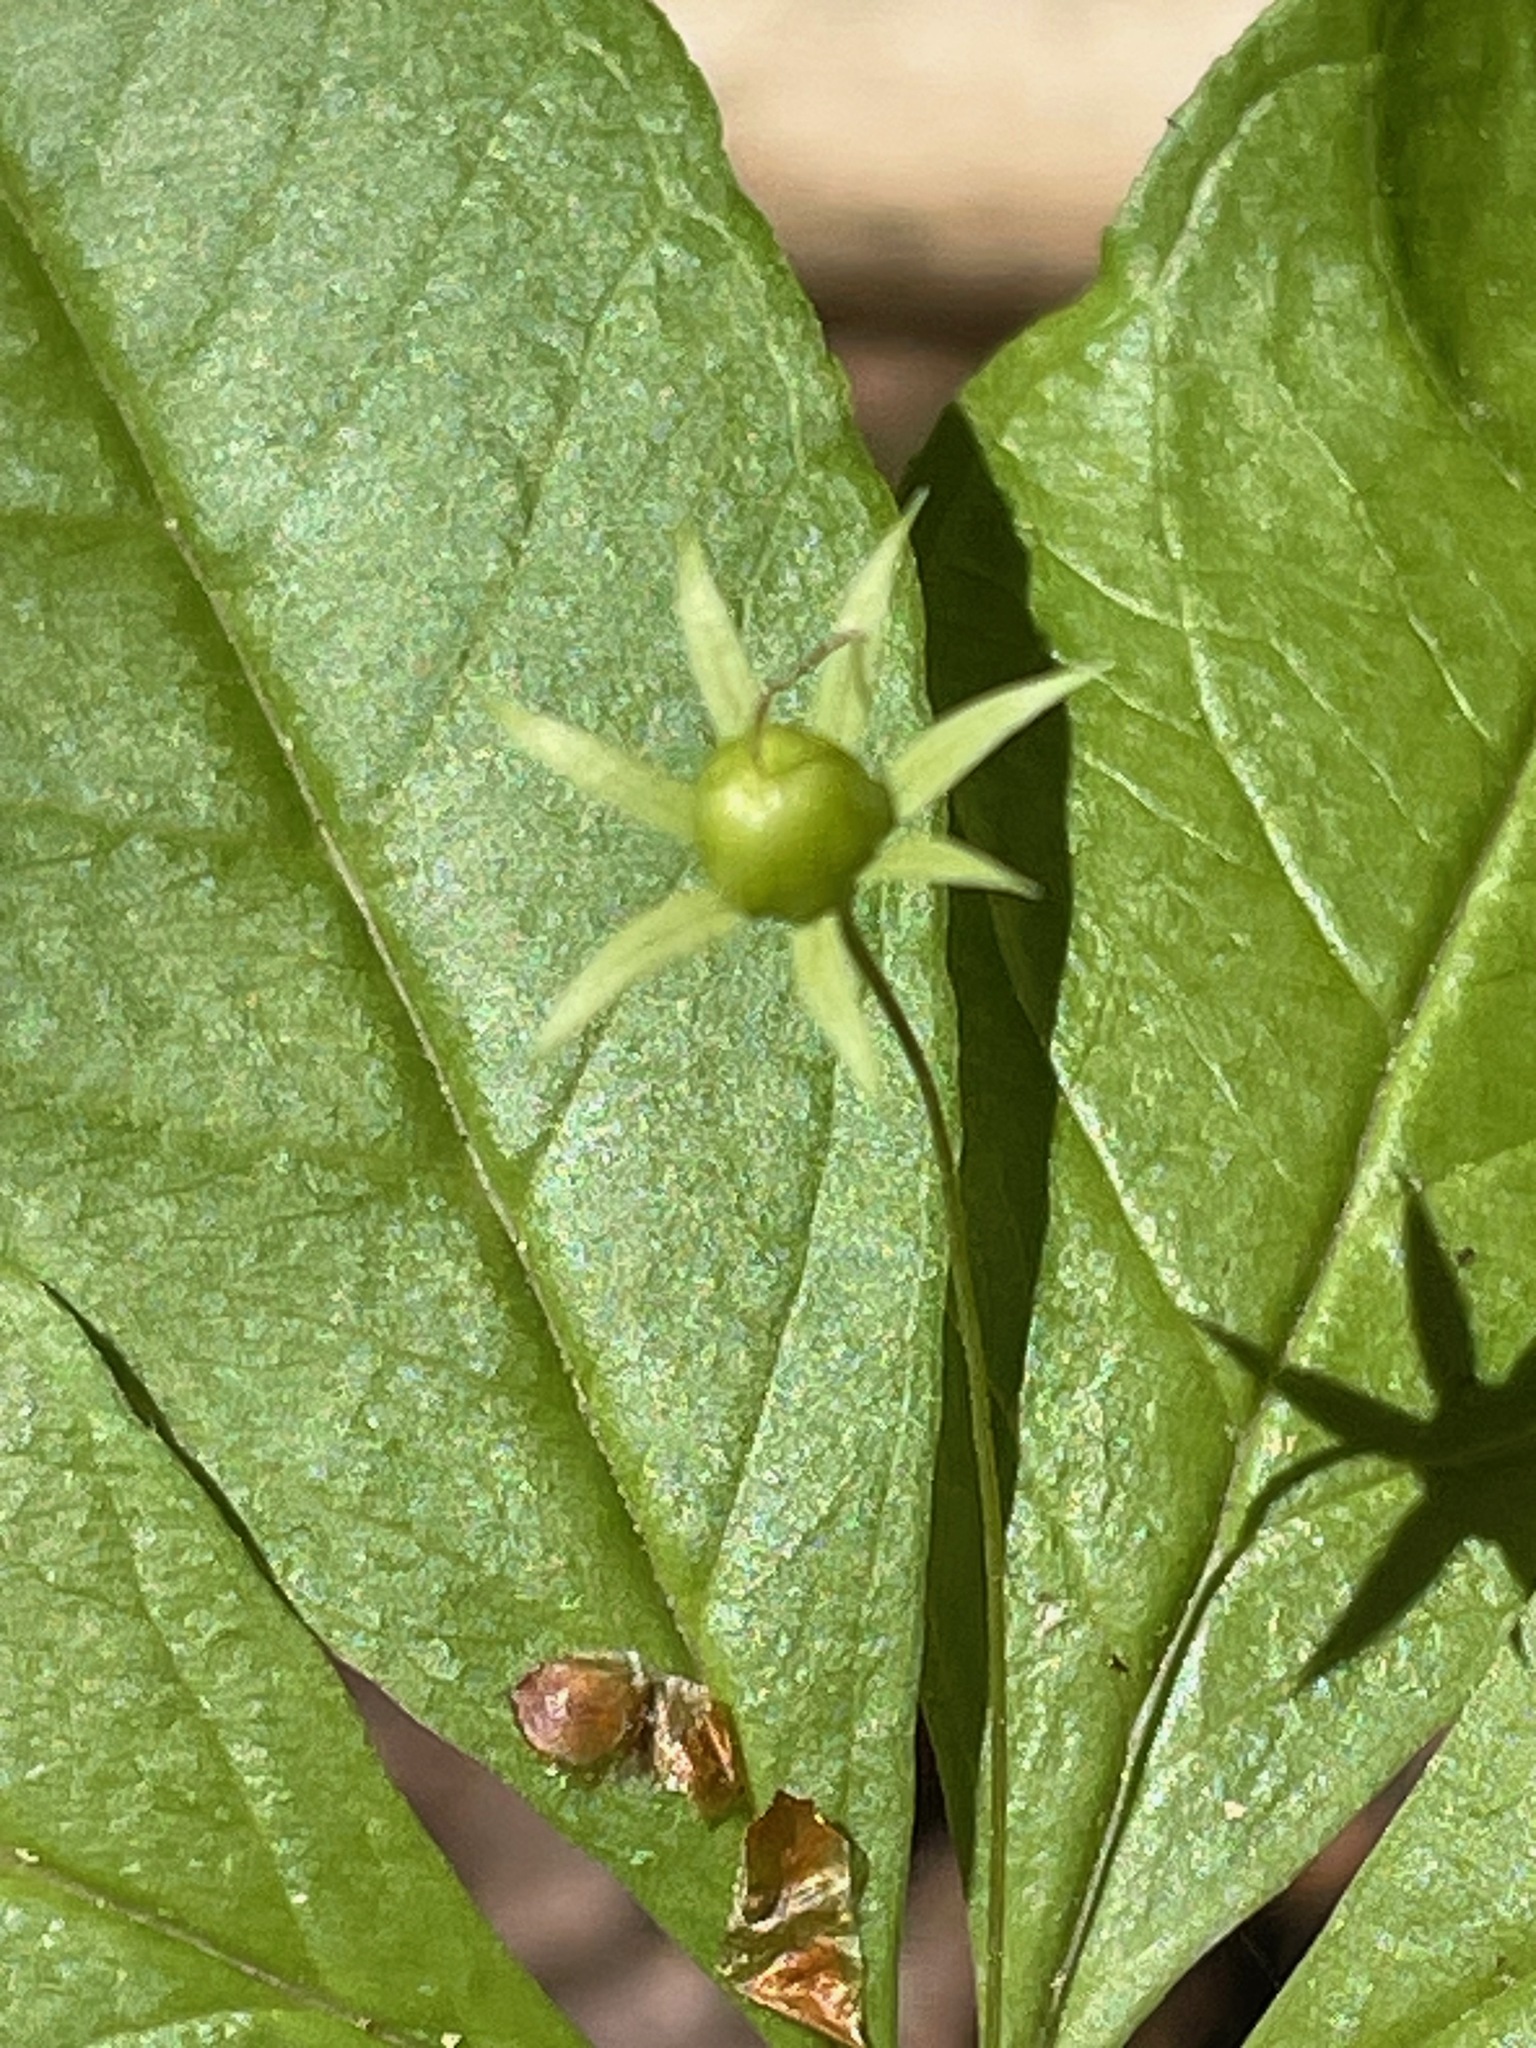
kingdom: Plantae
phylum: Tracheophyta
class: Magnoliopsida
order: Ericales
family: Primulaceae
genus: Lysimachia
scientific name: Lysimachia borealis
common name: American starflower
